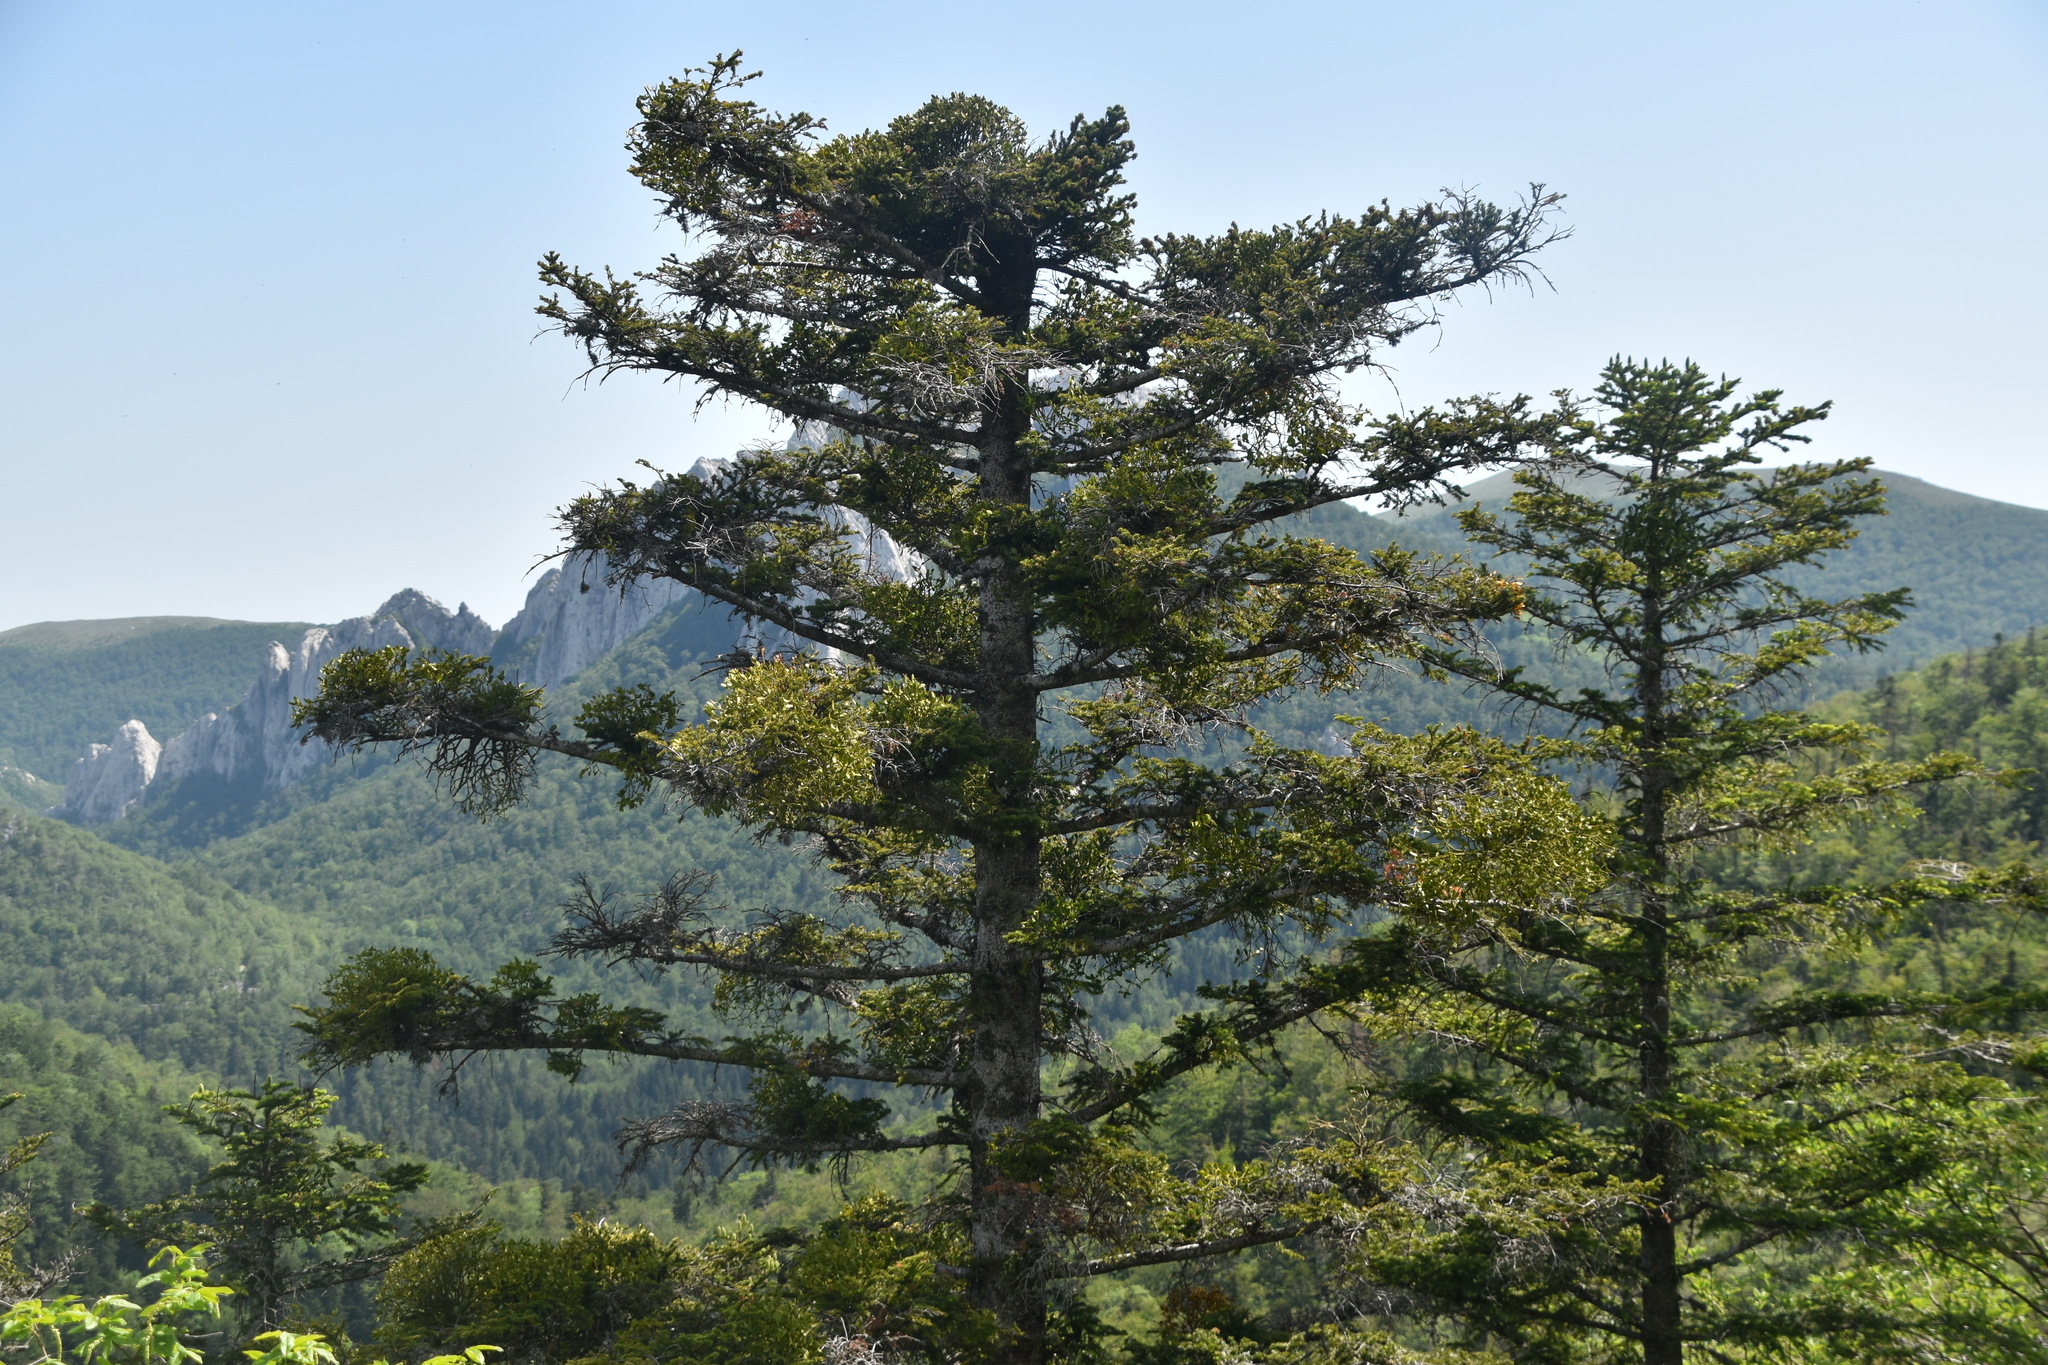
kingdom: Plantae
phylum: Tracheophyta
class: Pinopsida
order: Pinales
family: Pinaceae
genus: Abies
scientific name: Abies alba
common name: Silver fir
